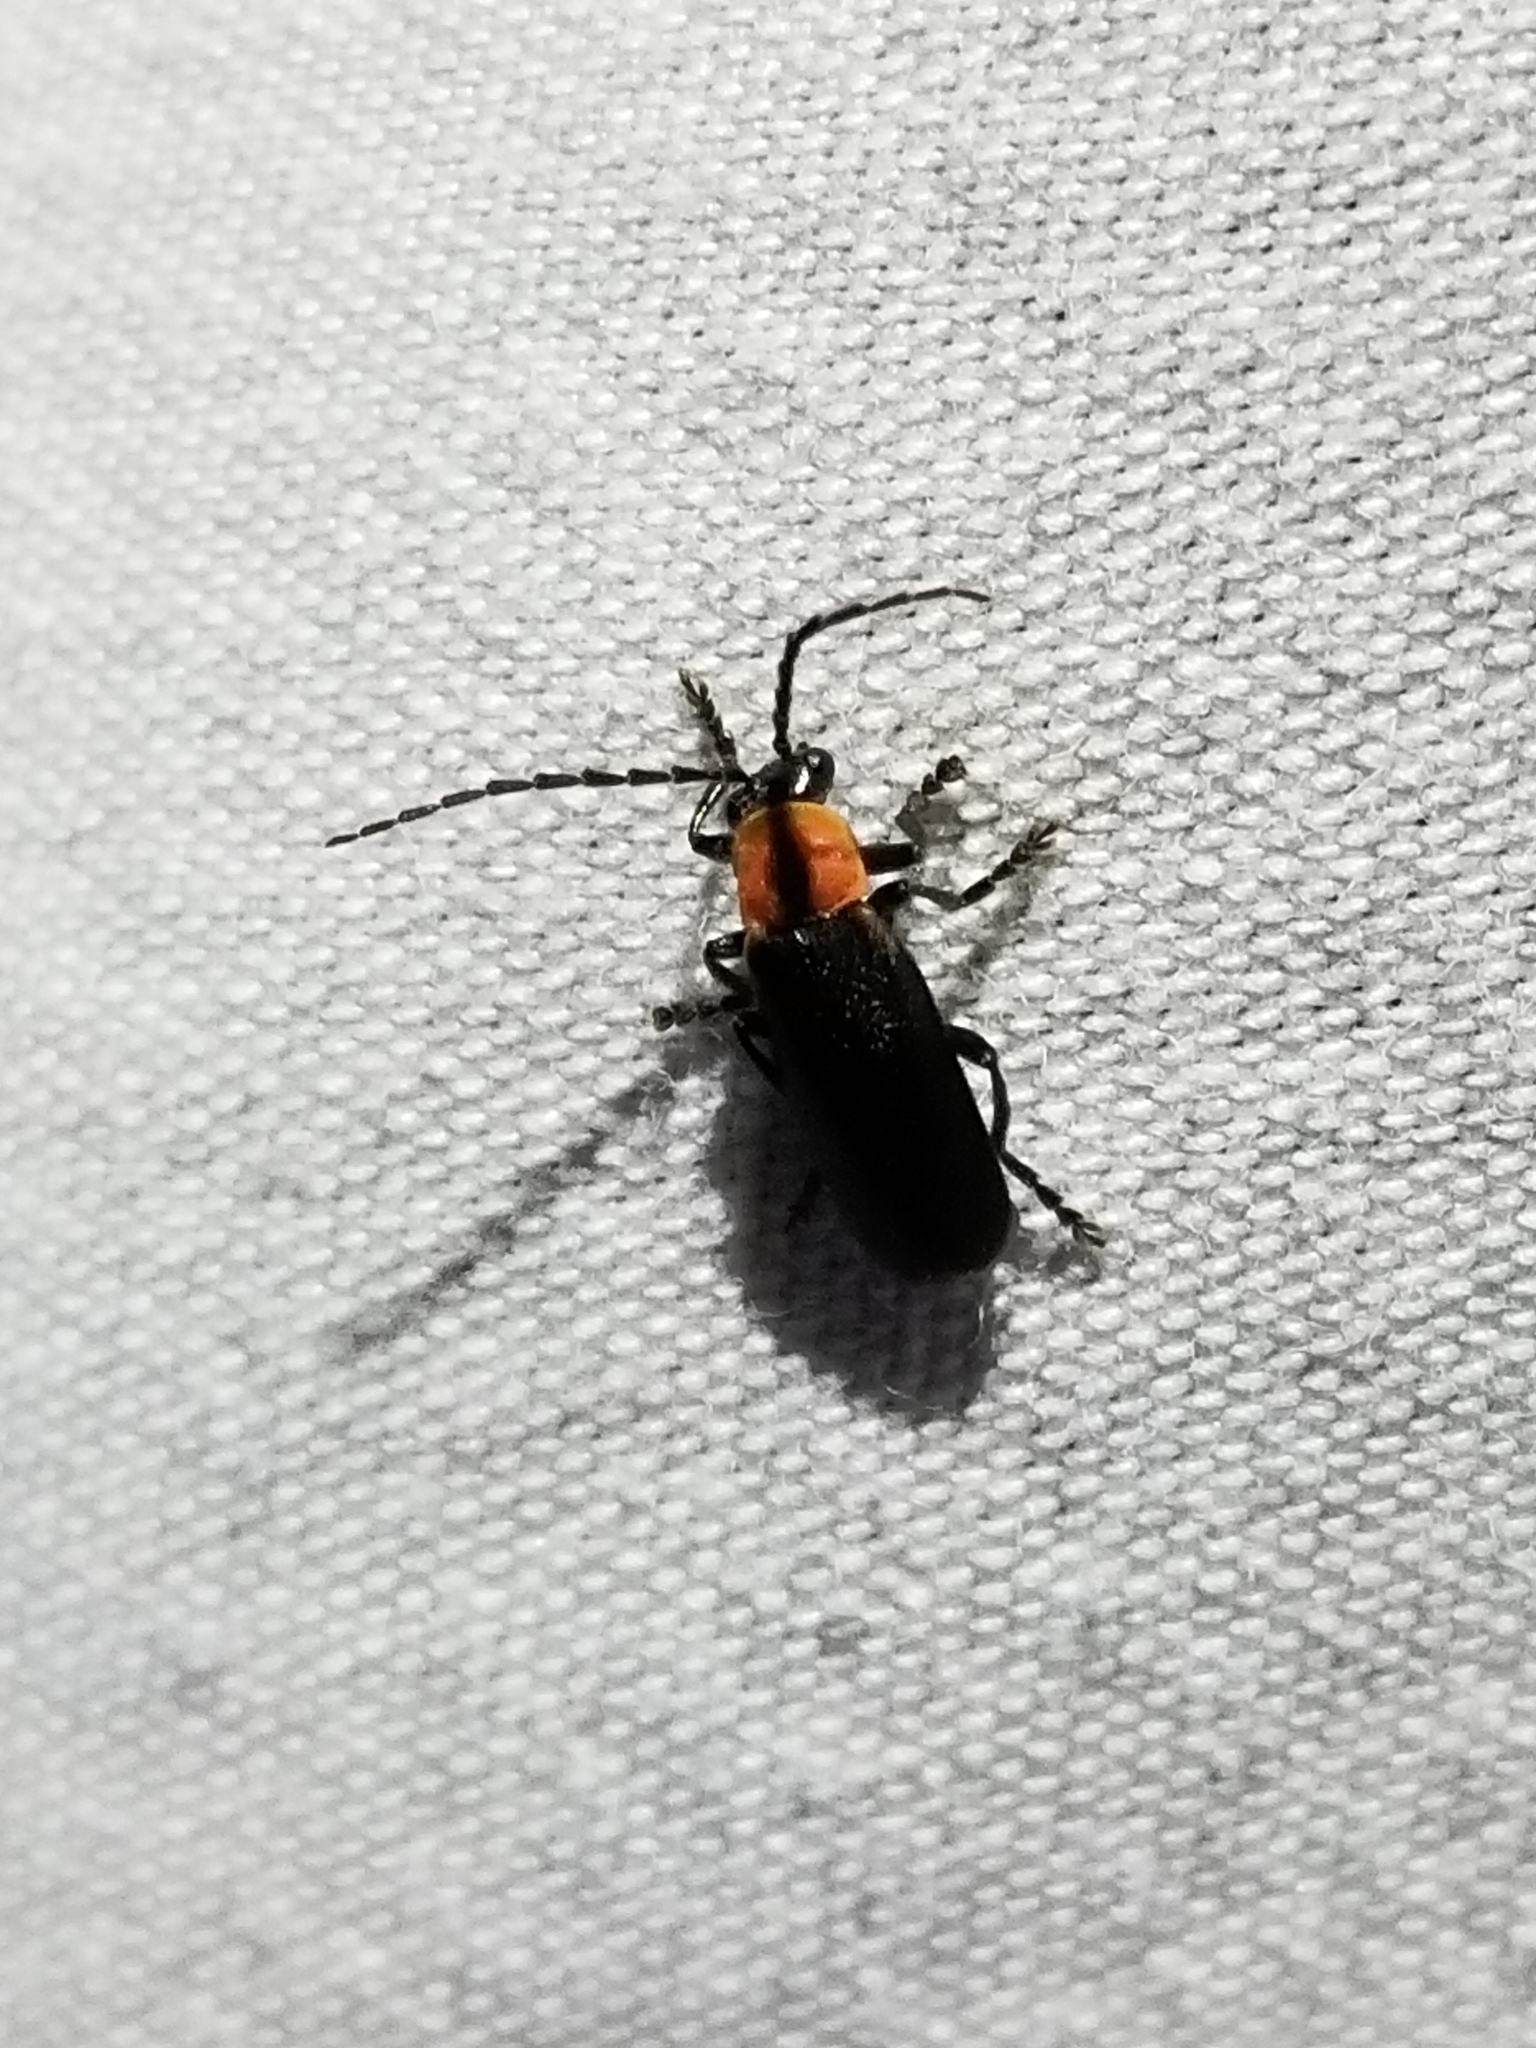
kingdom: Animalia
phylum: Arthropoda
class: Insecta
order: Coleoptera
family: Cantharidae
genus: Discodon
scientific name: Discodon planicolle
